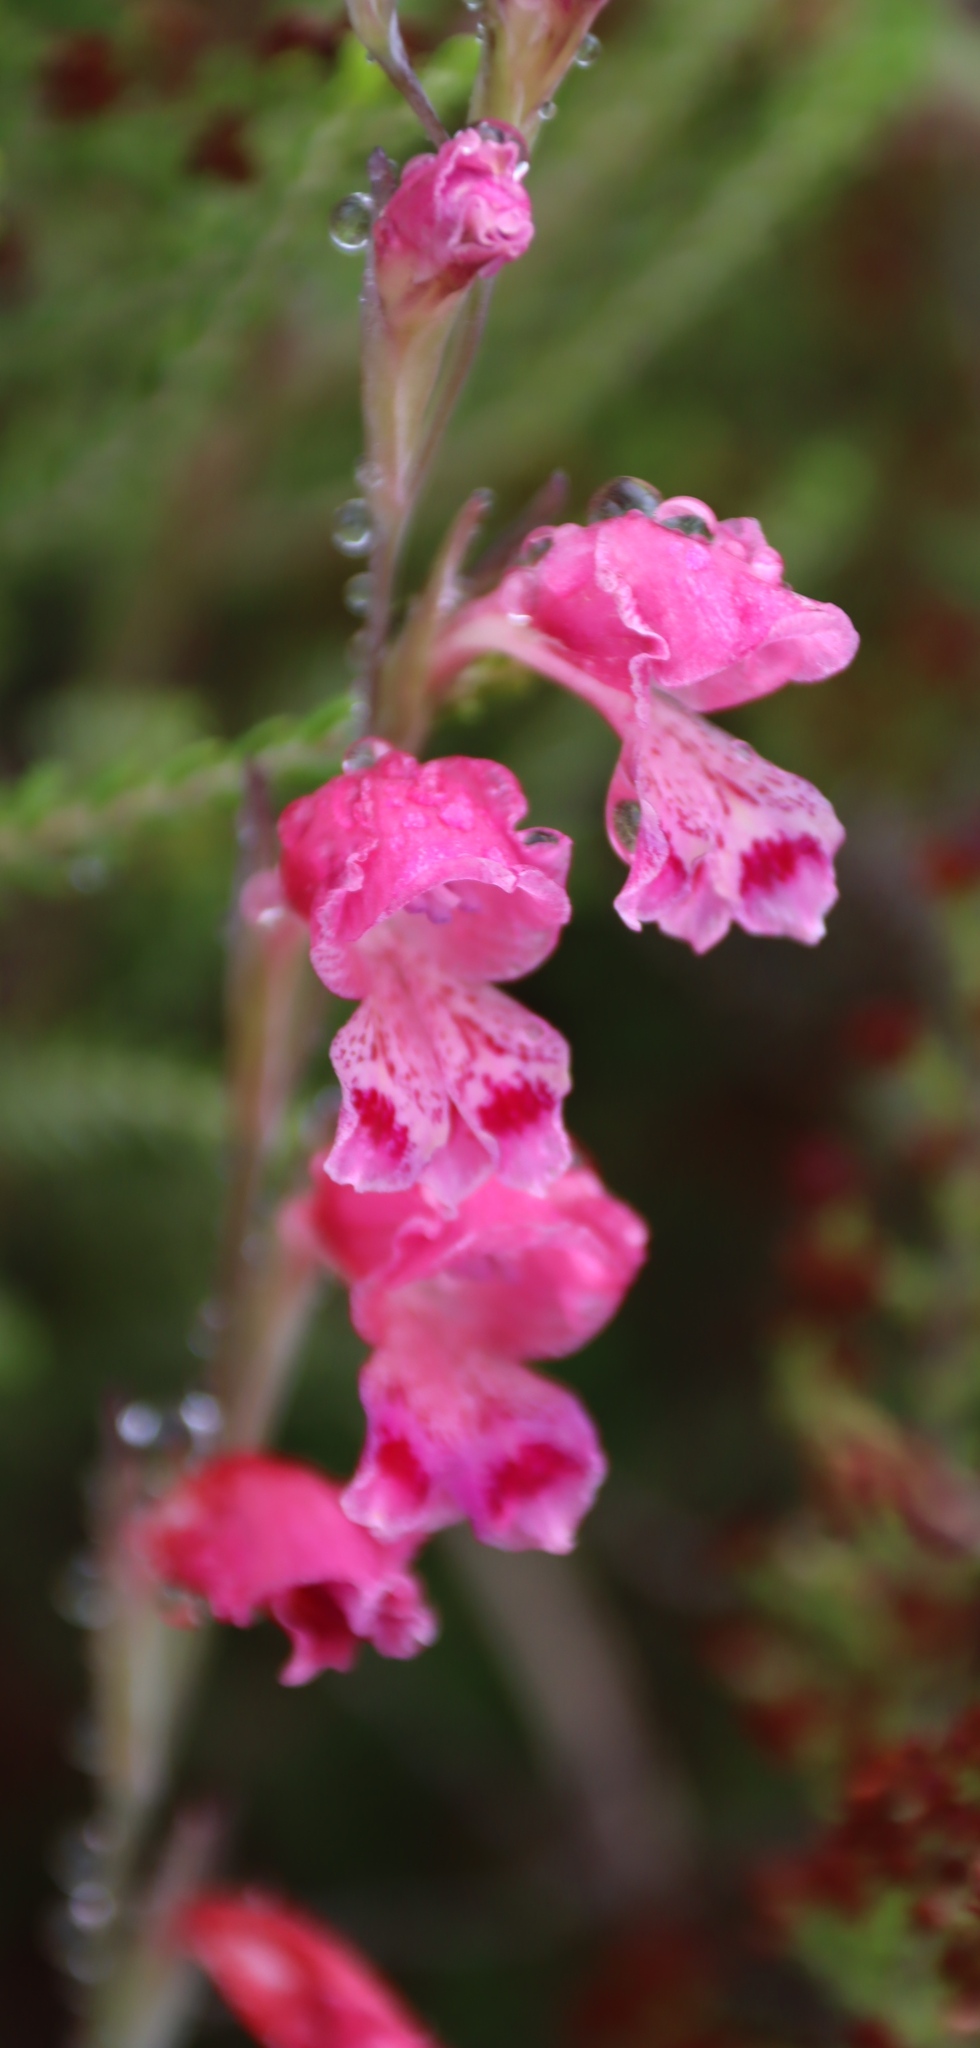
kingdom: Plantae
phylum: Tracheophyta
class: Liliopsida
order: Asparagales
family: Iridaceae
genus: Gladiolus
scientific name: Gladiolus brevifolius
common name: March pypie
